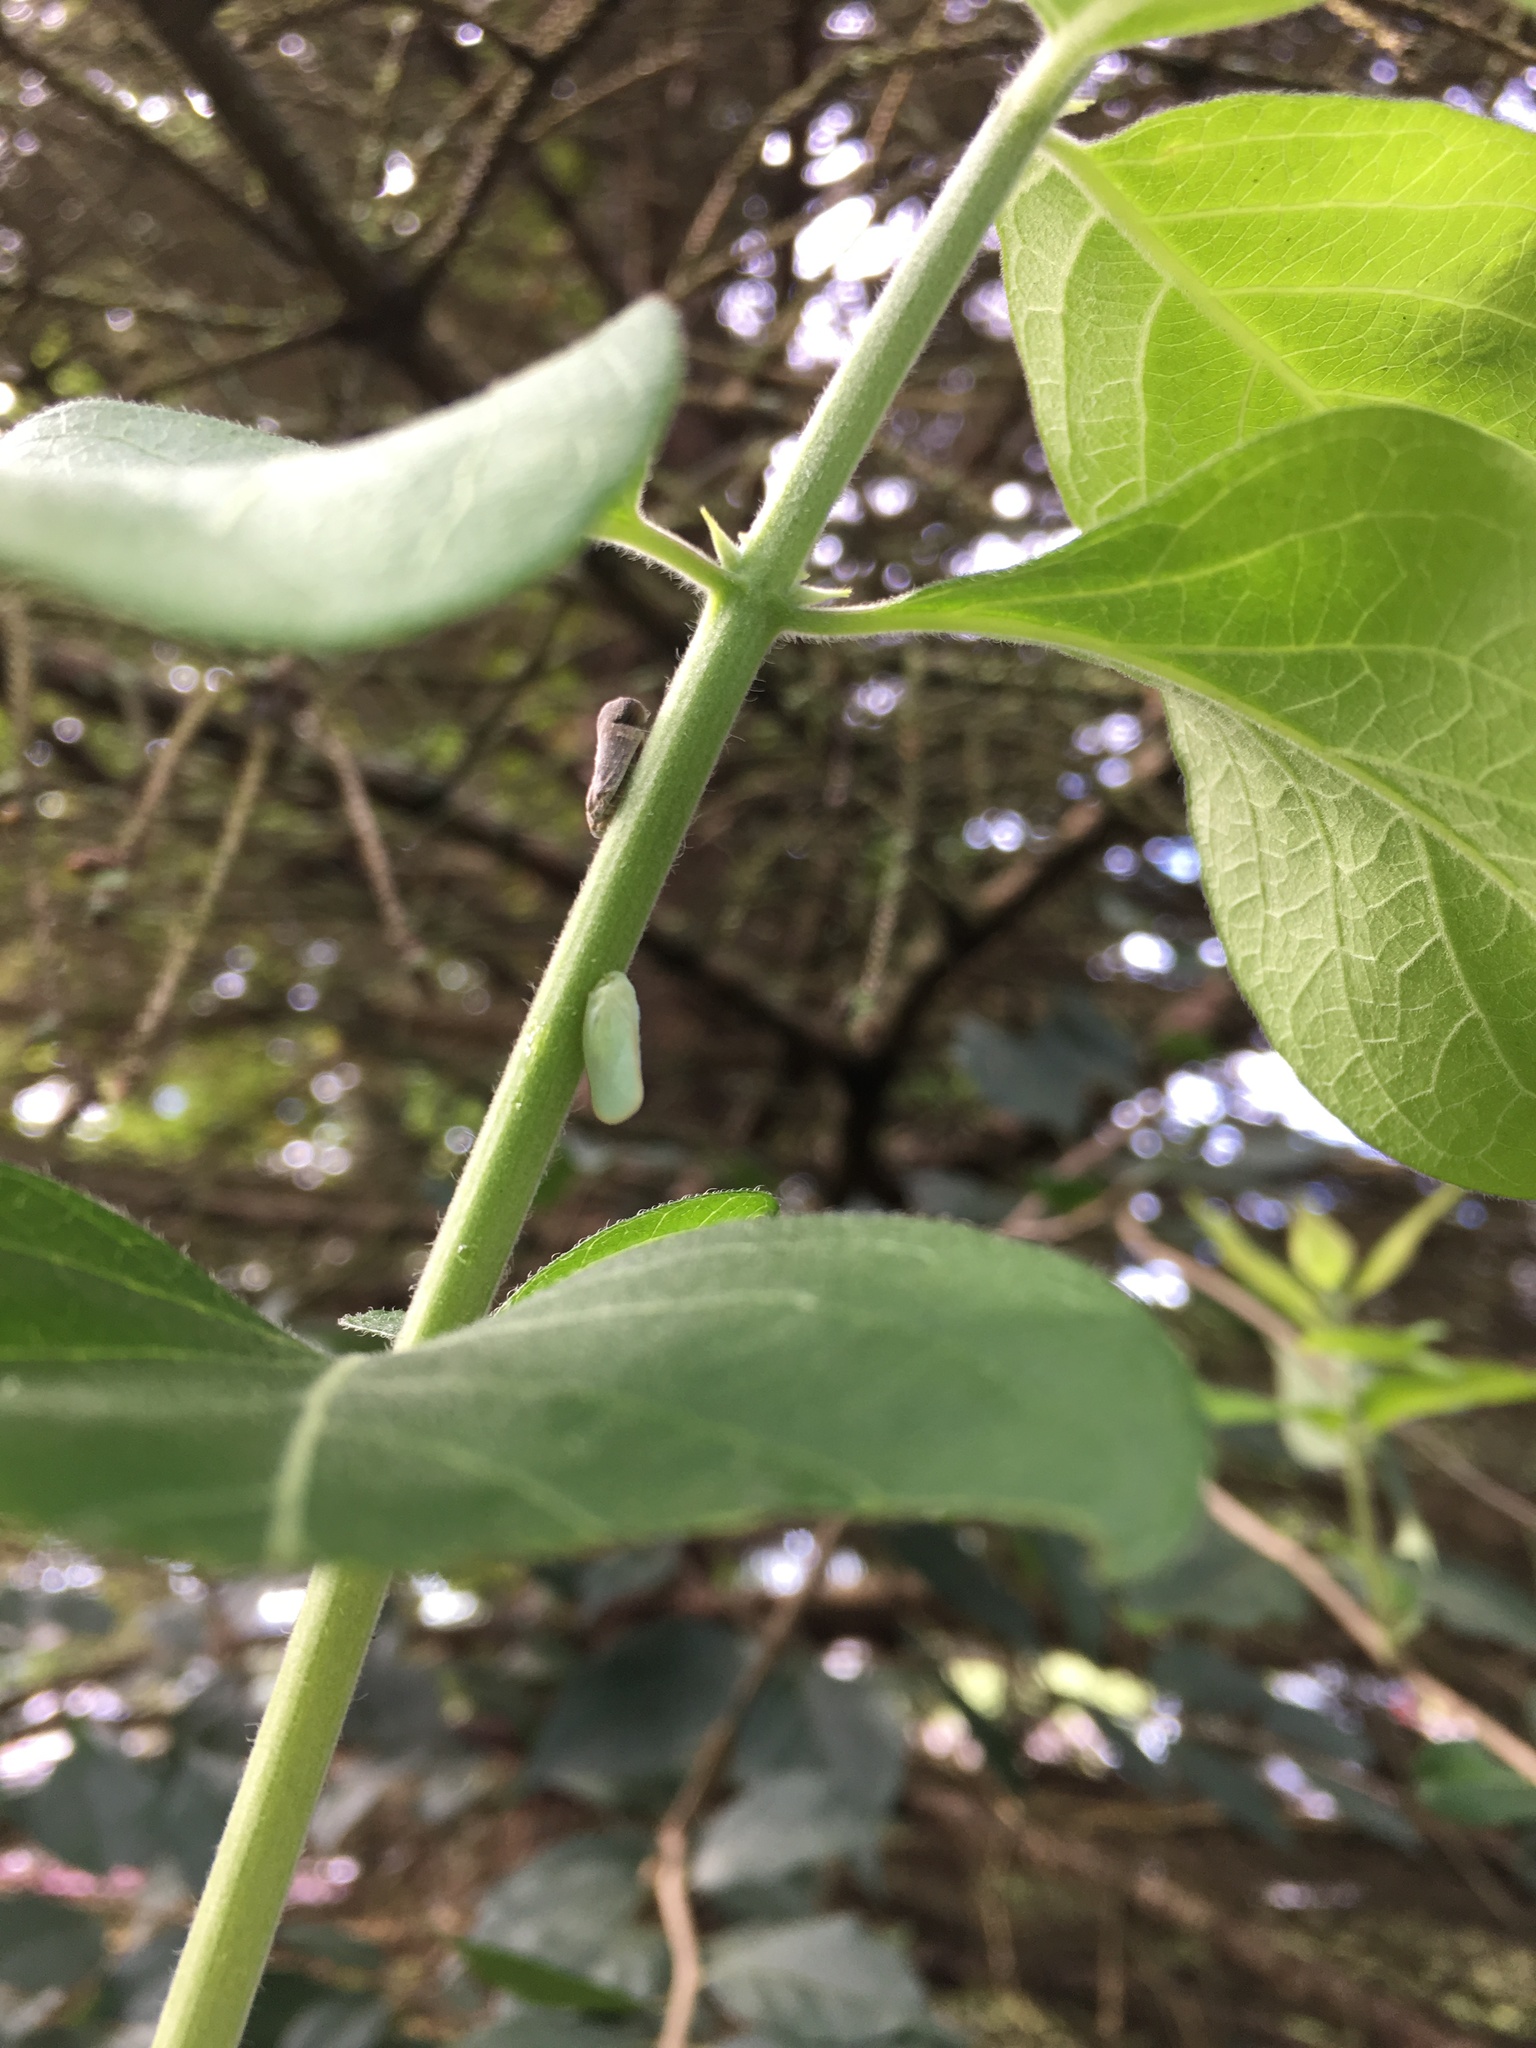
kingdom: Animalia
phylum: Arthropoda
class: Insecta
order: Hemiptera
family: Flatidae
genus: Ormenoides
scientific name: Ormenoides venusta
